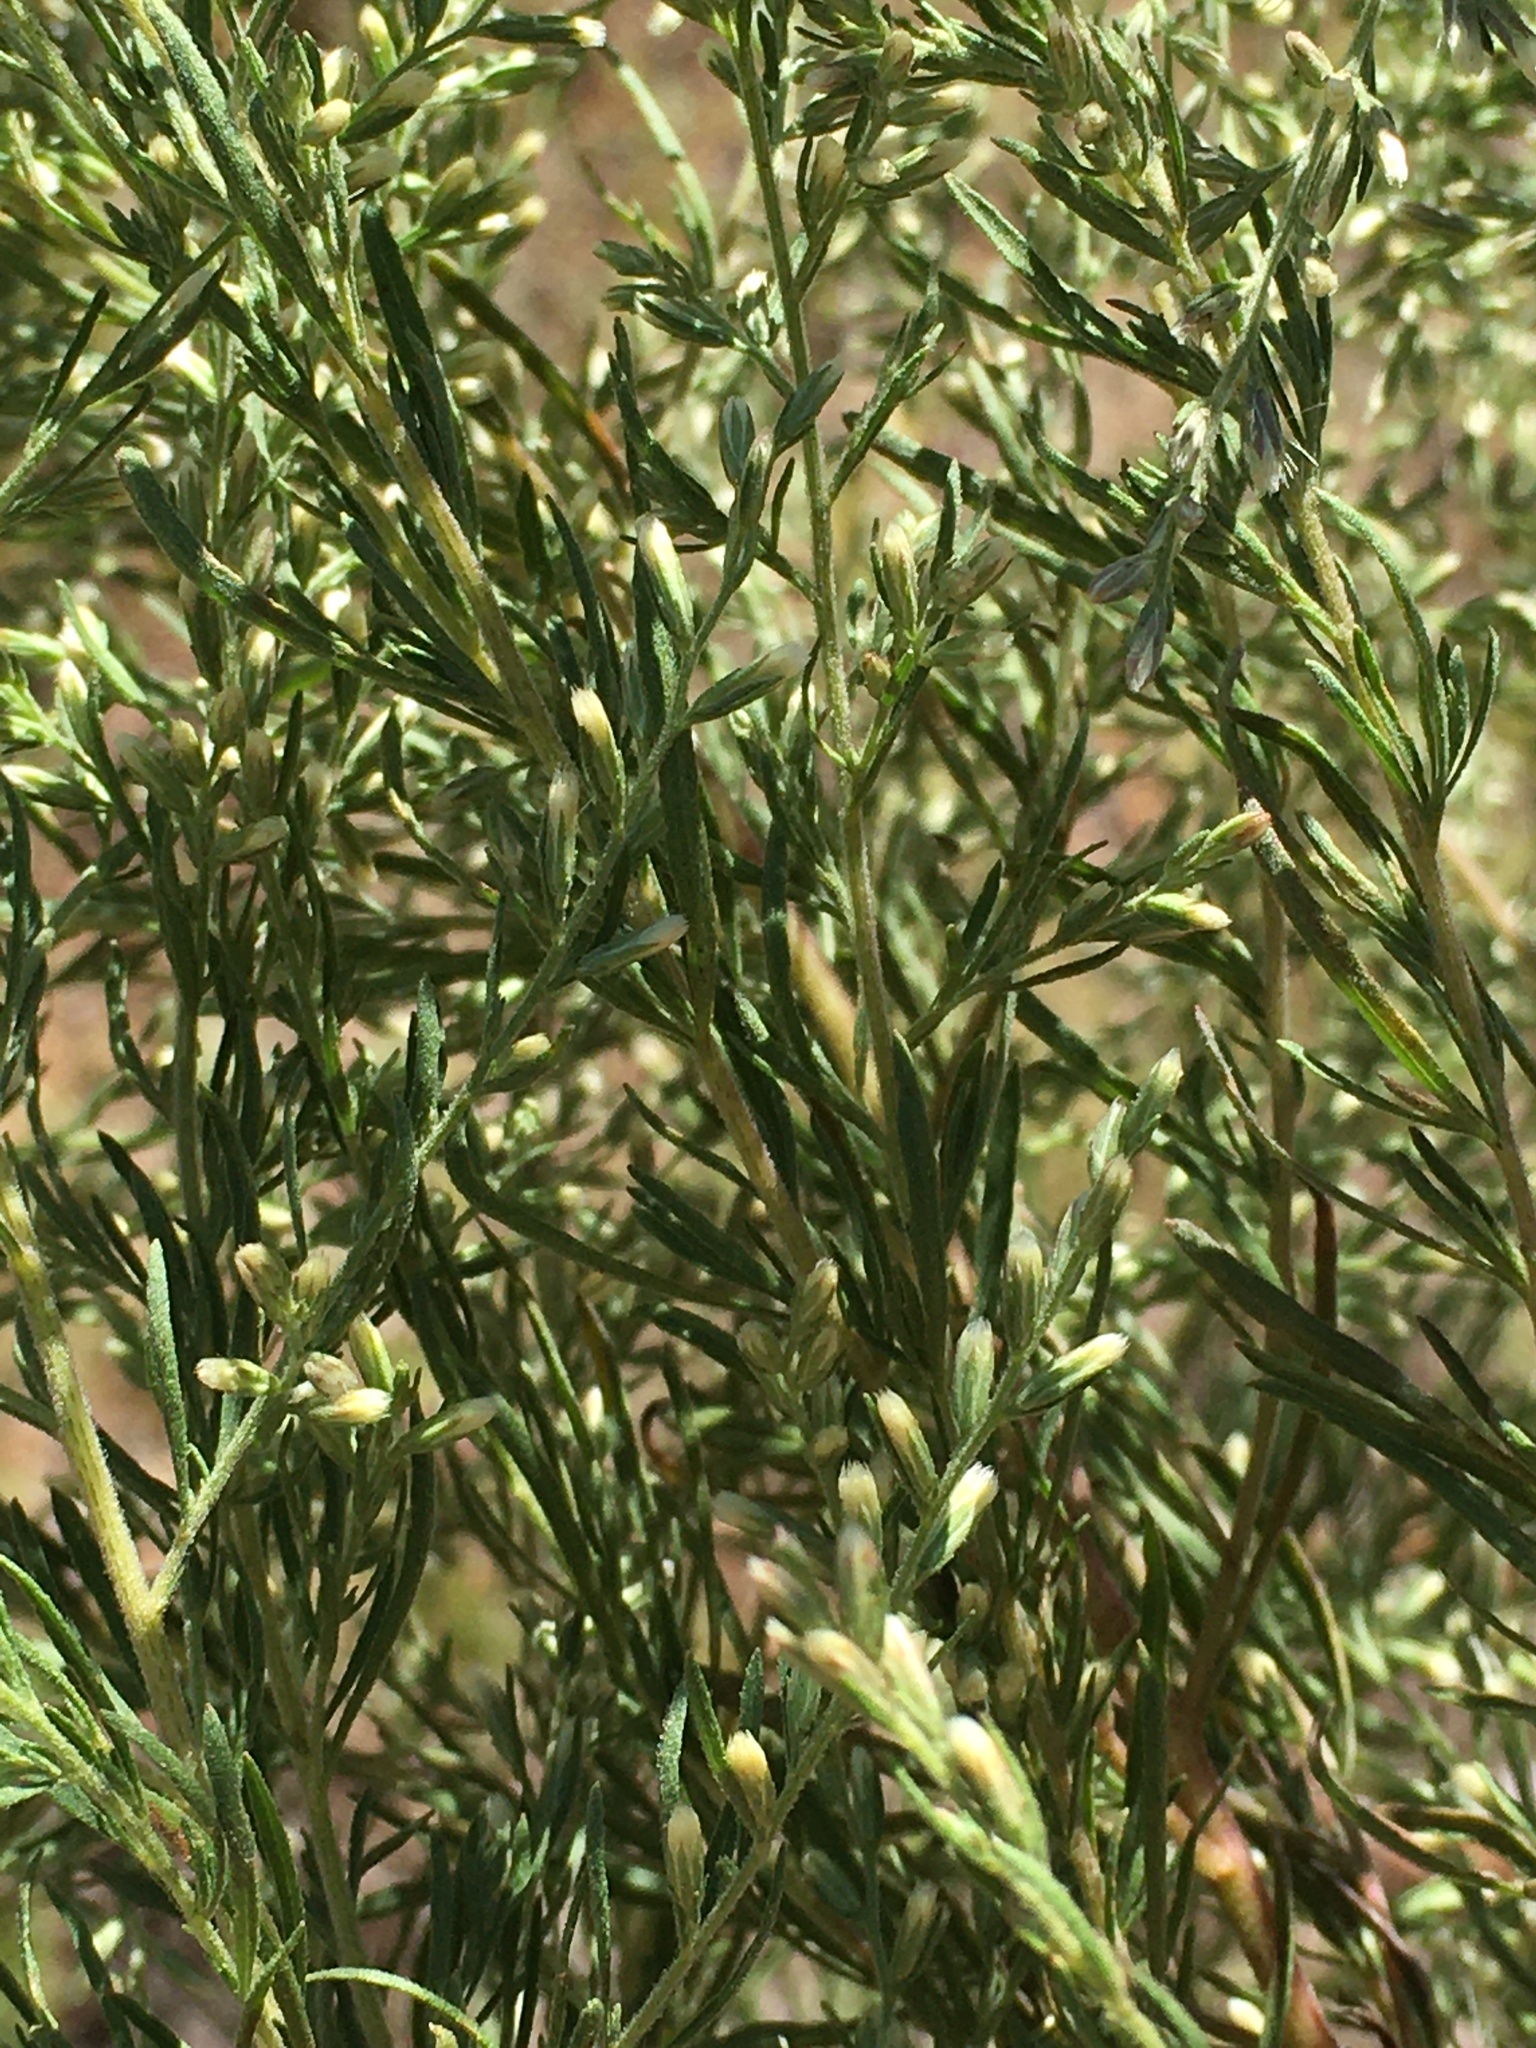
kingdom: Plantae
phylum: Tracheophyta
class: Magnoliopsida
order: Asterales
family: Asteraceae
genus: Eupatorium
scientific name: Eupatorium compositifolium
